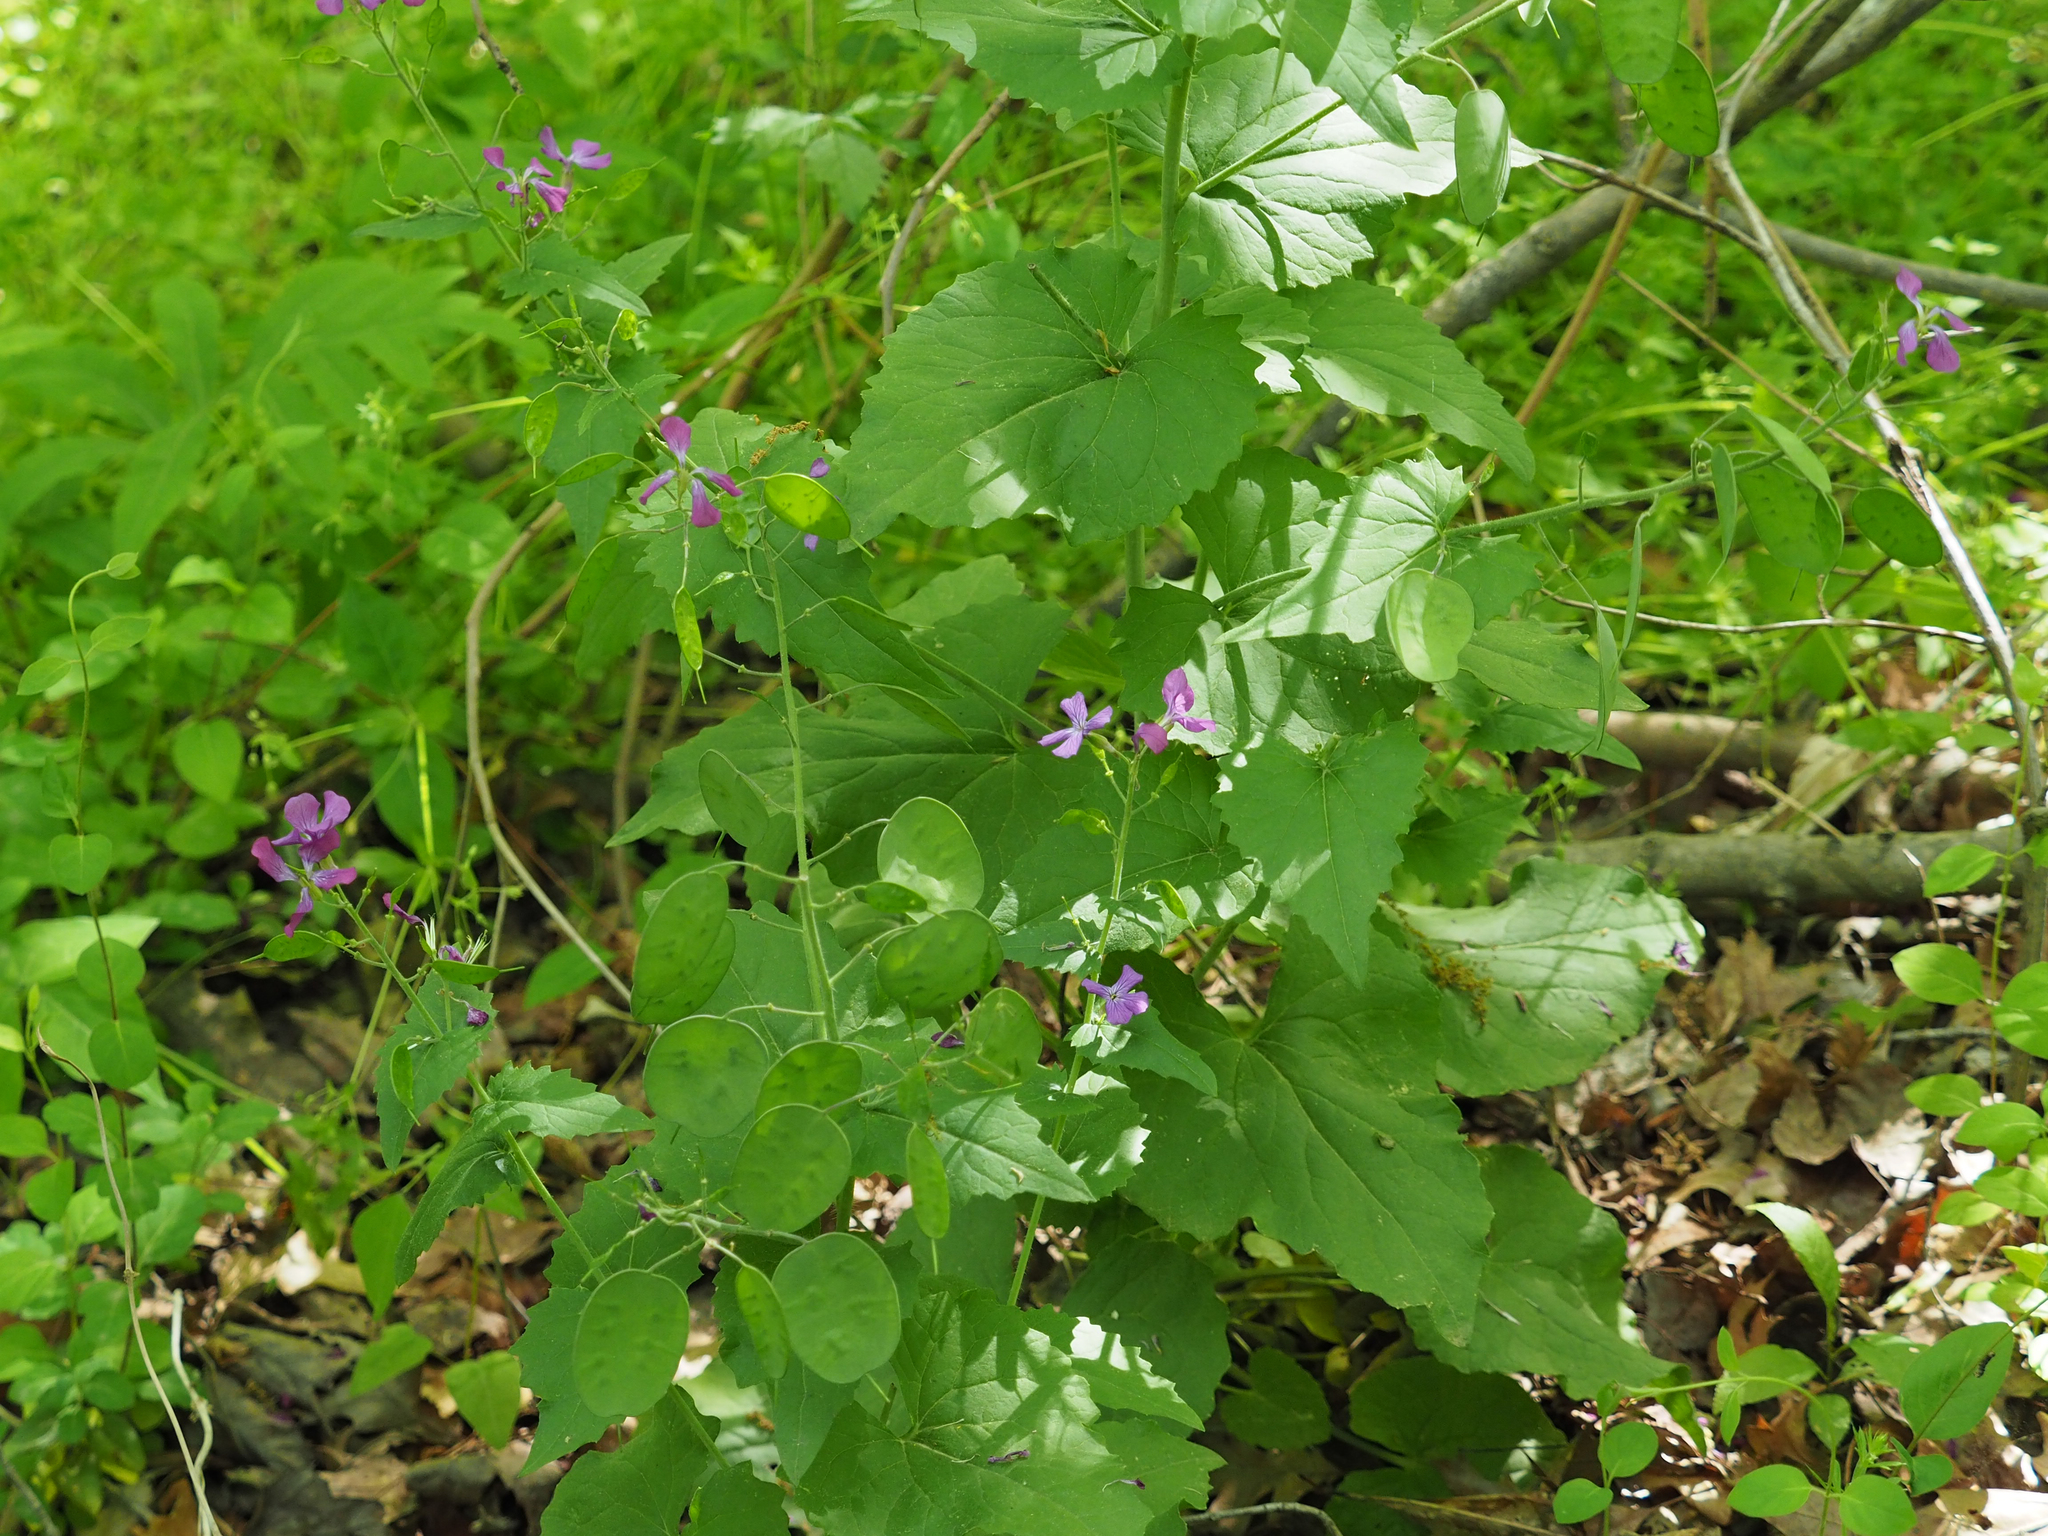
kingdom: Plantae
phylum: Tracheophyta
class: Magnoliopsida
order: Brassicales
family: Brassicaceae
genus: Lunaria
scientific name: Lunaria annua
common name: Honesty
